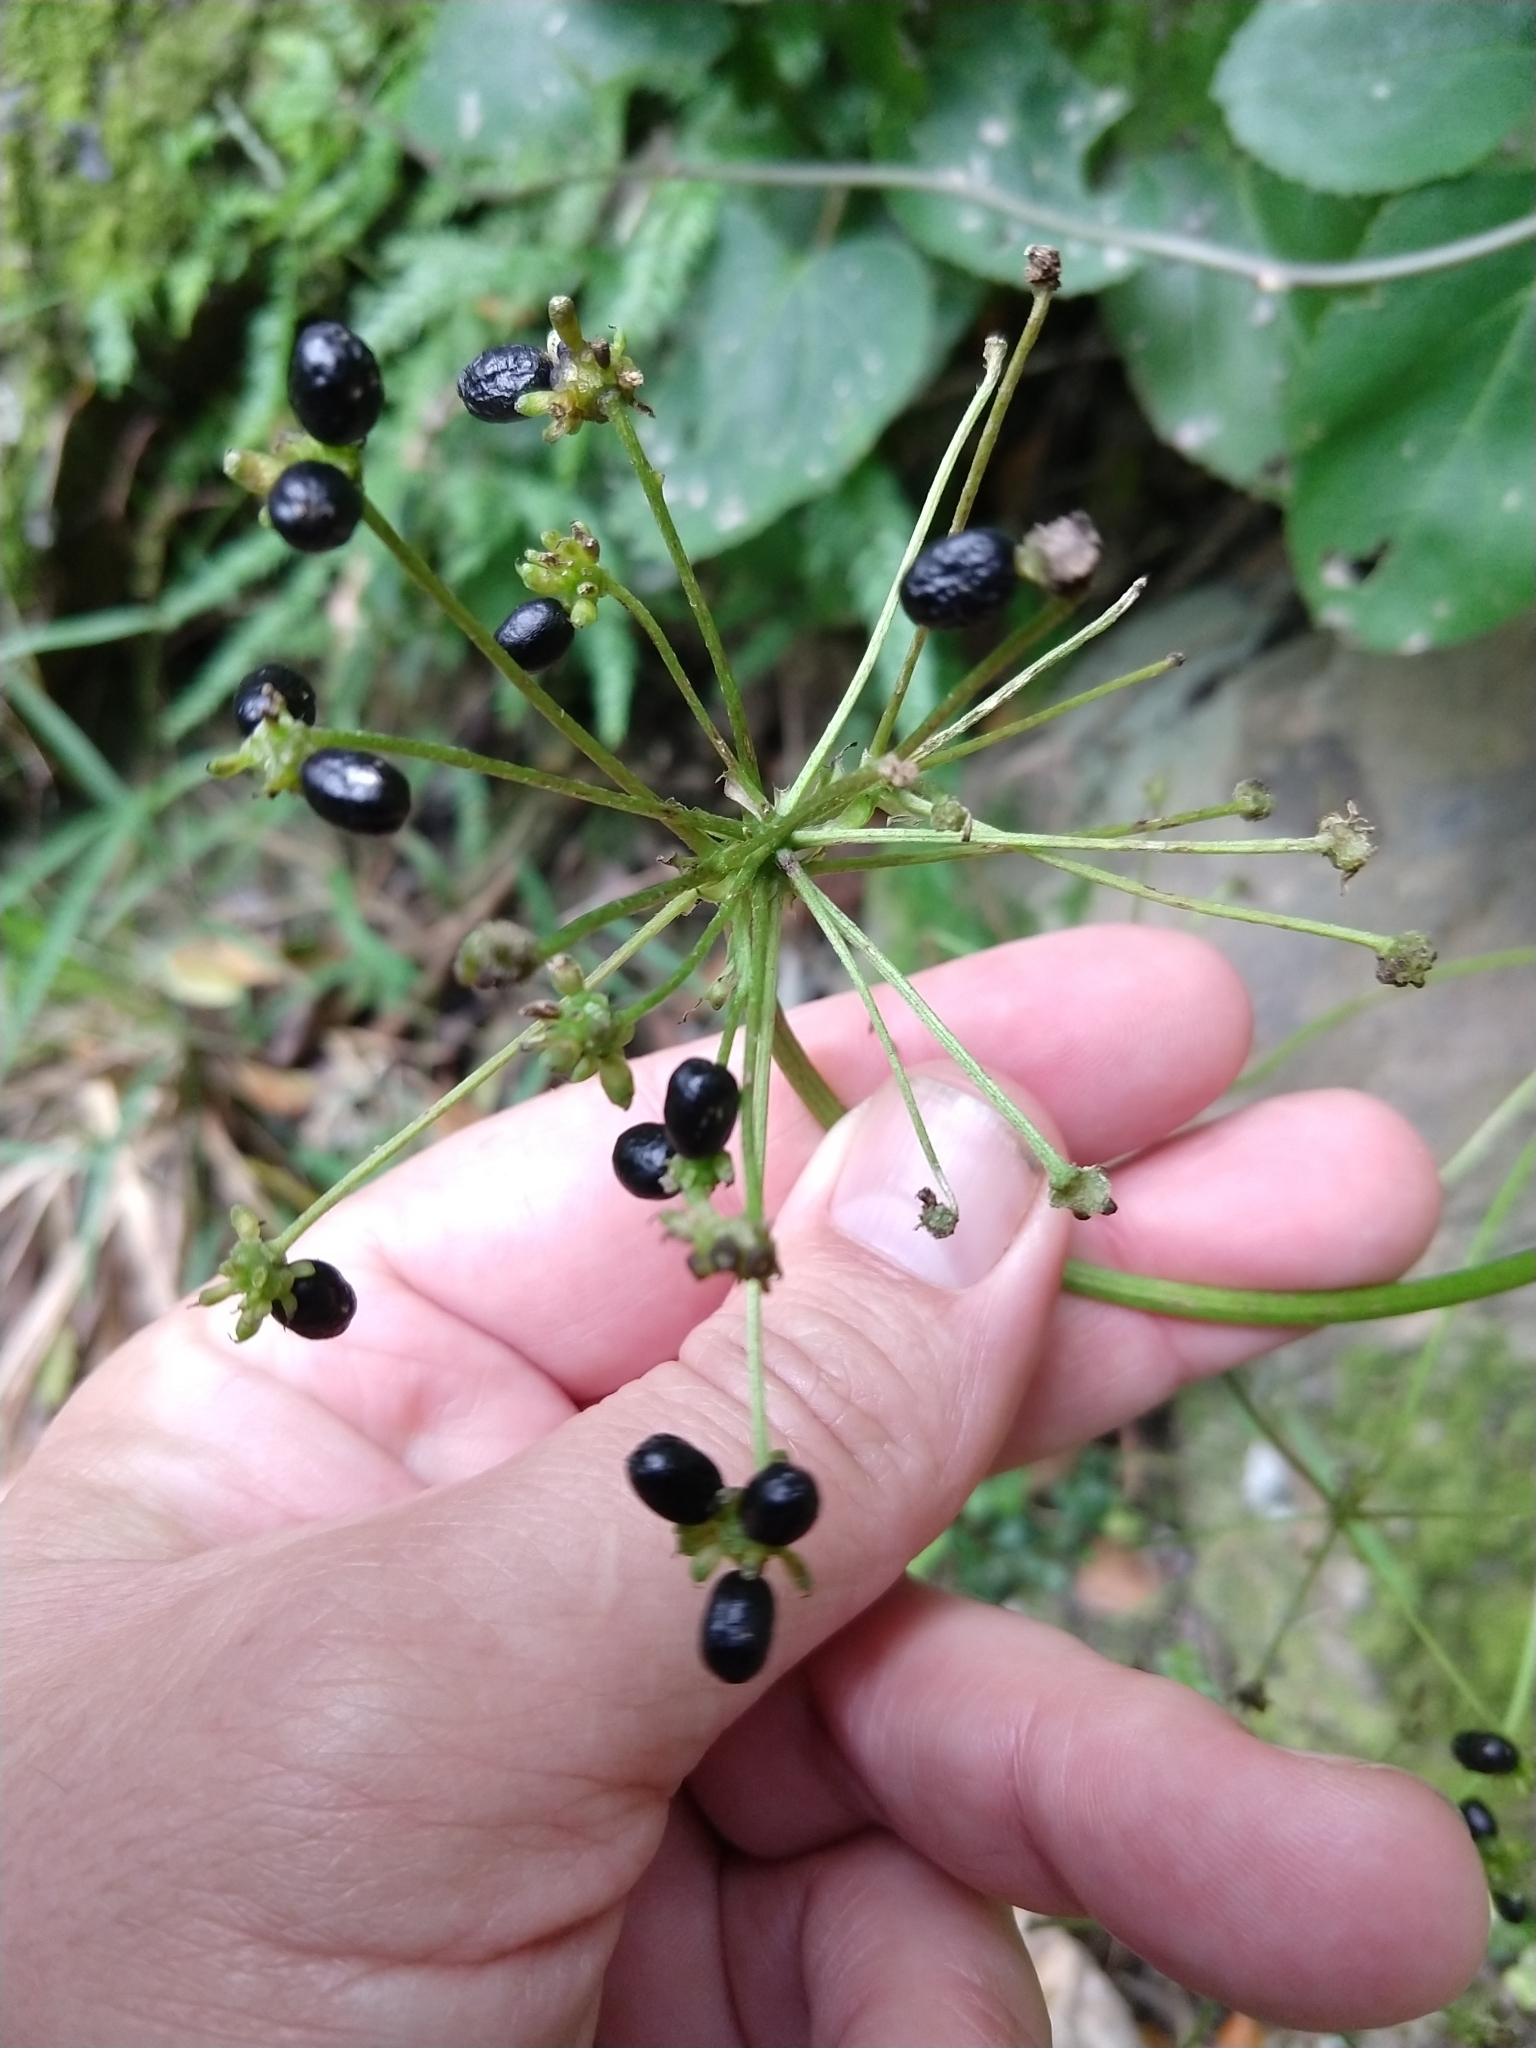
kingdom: Plantae
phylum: Tracheophyta
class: Magnoliopsida
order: Ranunculales
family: Ranunculaceae
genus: Knowltonia
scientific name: Knowltonia vesicatoria
